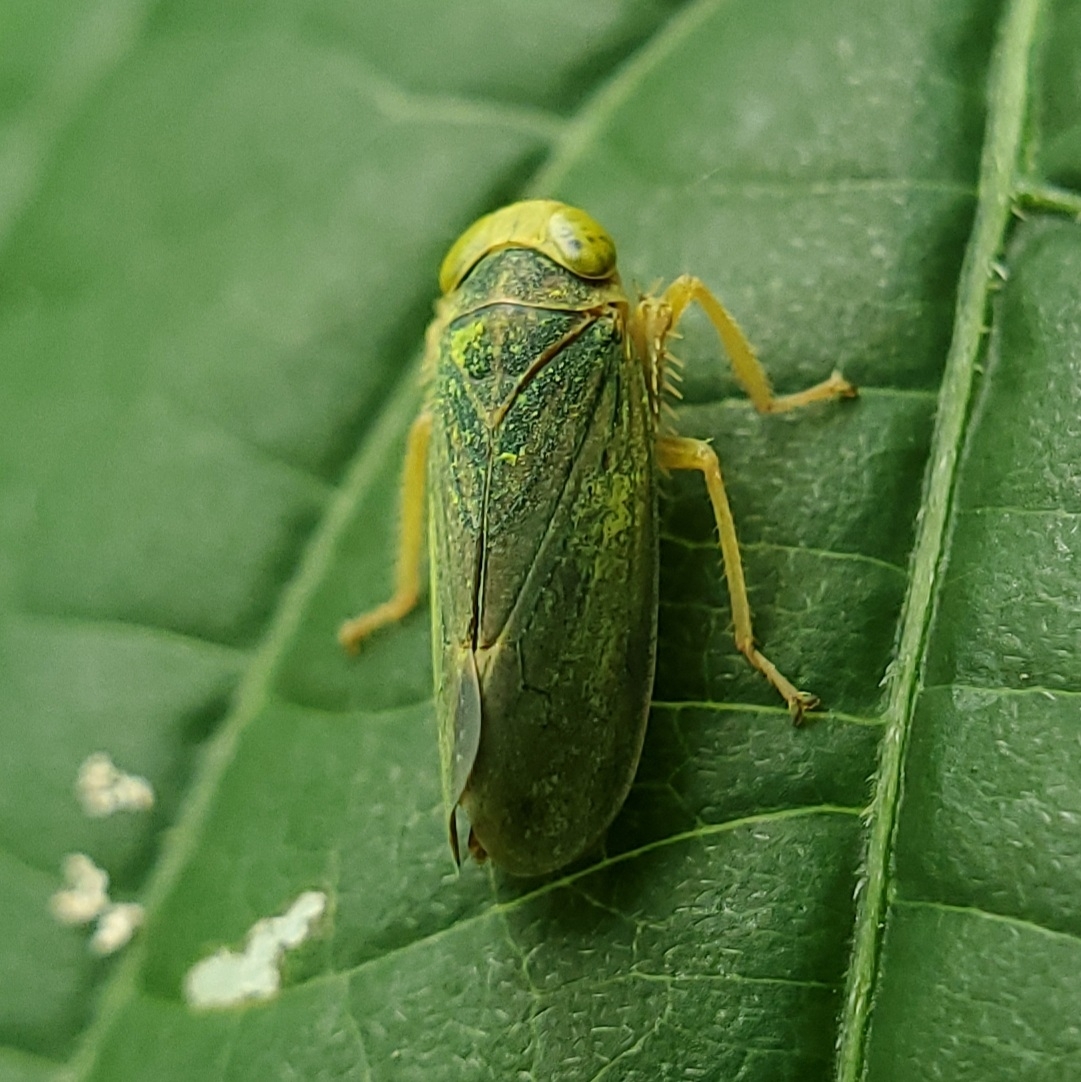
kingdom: Animalia
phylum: Arthropoda
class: Insecta
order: Hemiptera
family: Cicadellidae
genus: Jikradia
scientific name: Jikradia olitoria
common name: Coppery leafhopper
